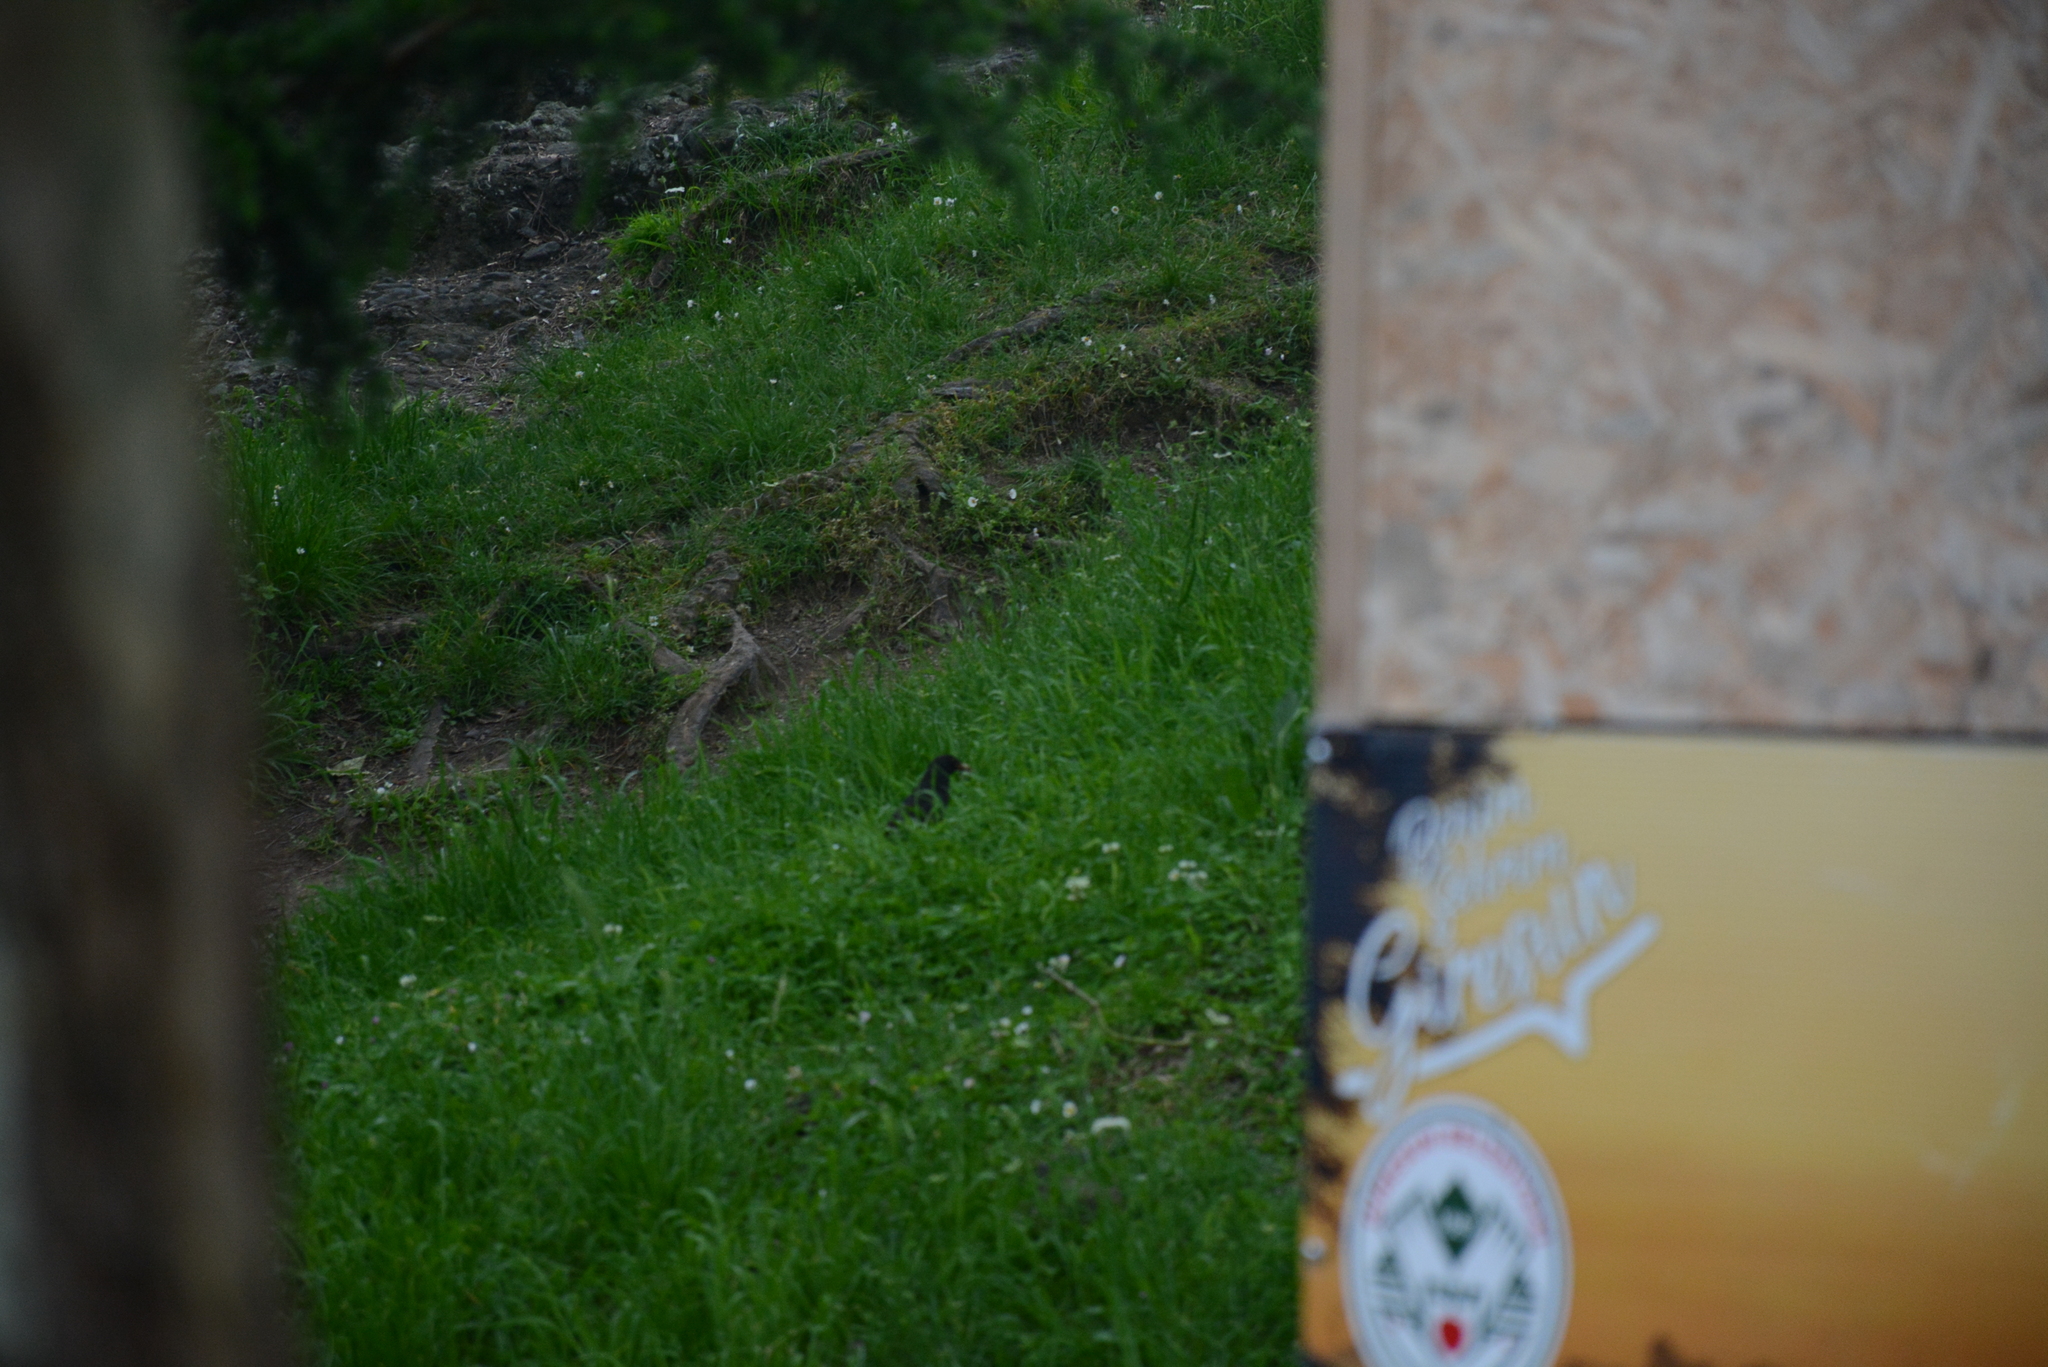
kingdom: Animalia
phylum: Chordata
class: Aves
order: Passeriformes
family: Turdidae
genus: Turdus
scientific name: Turdus merula
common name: Common blackbird
